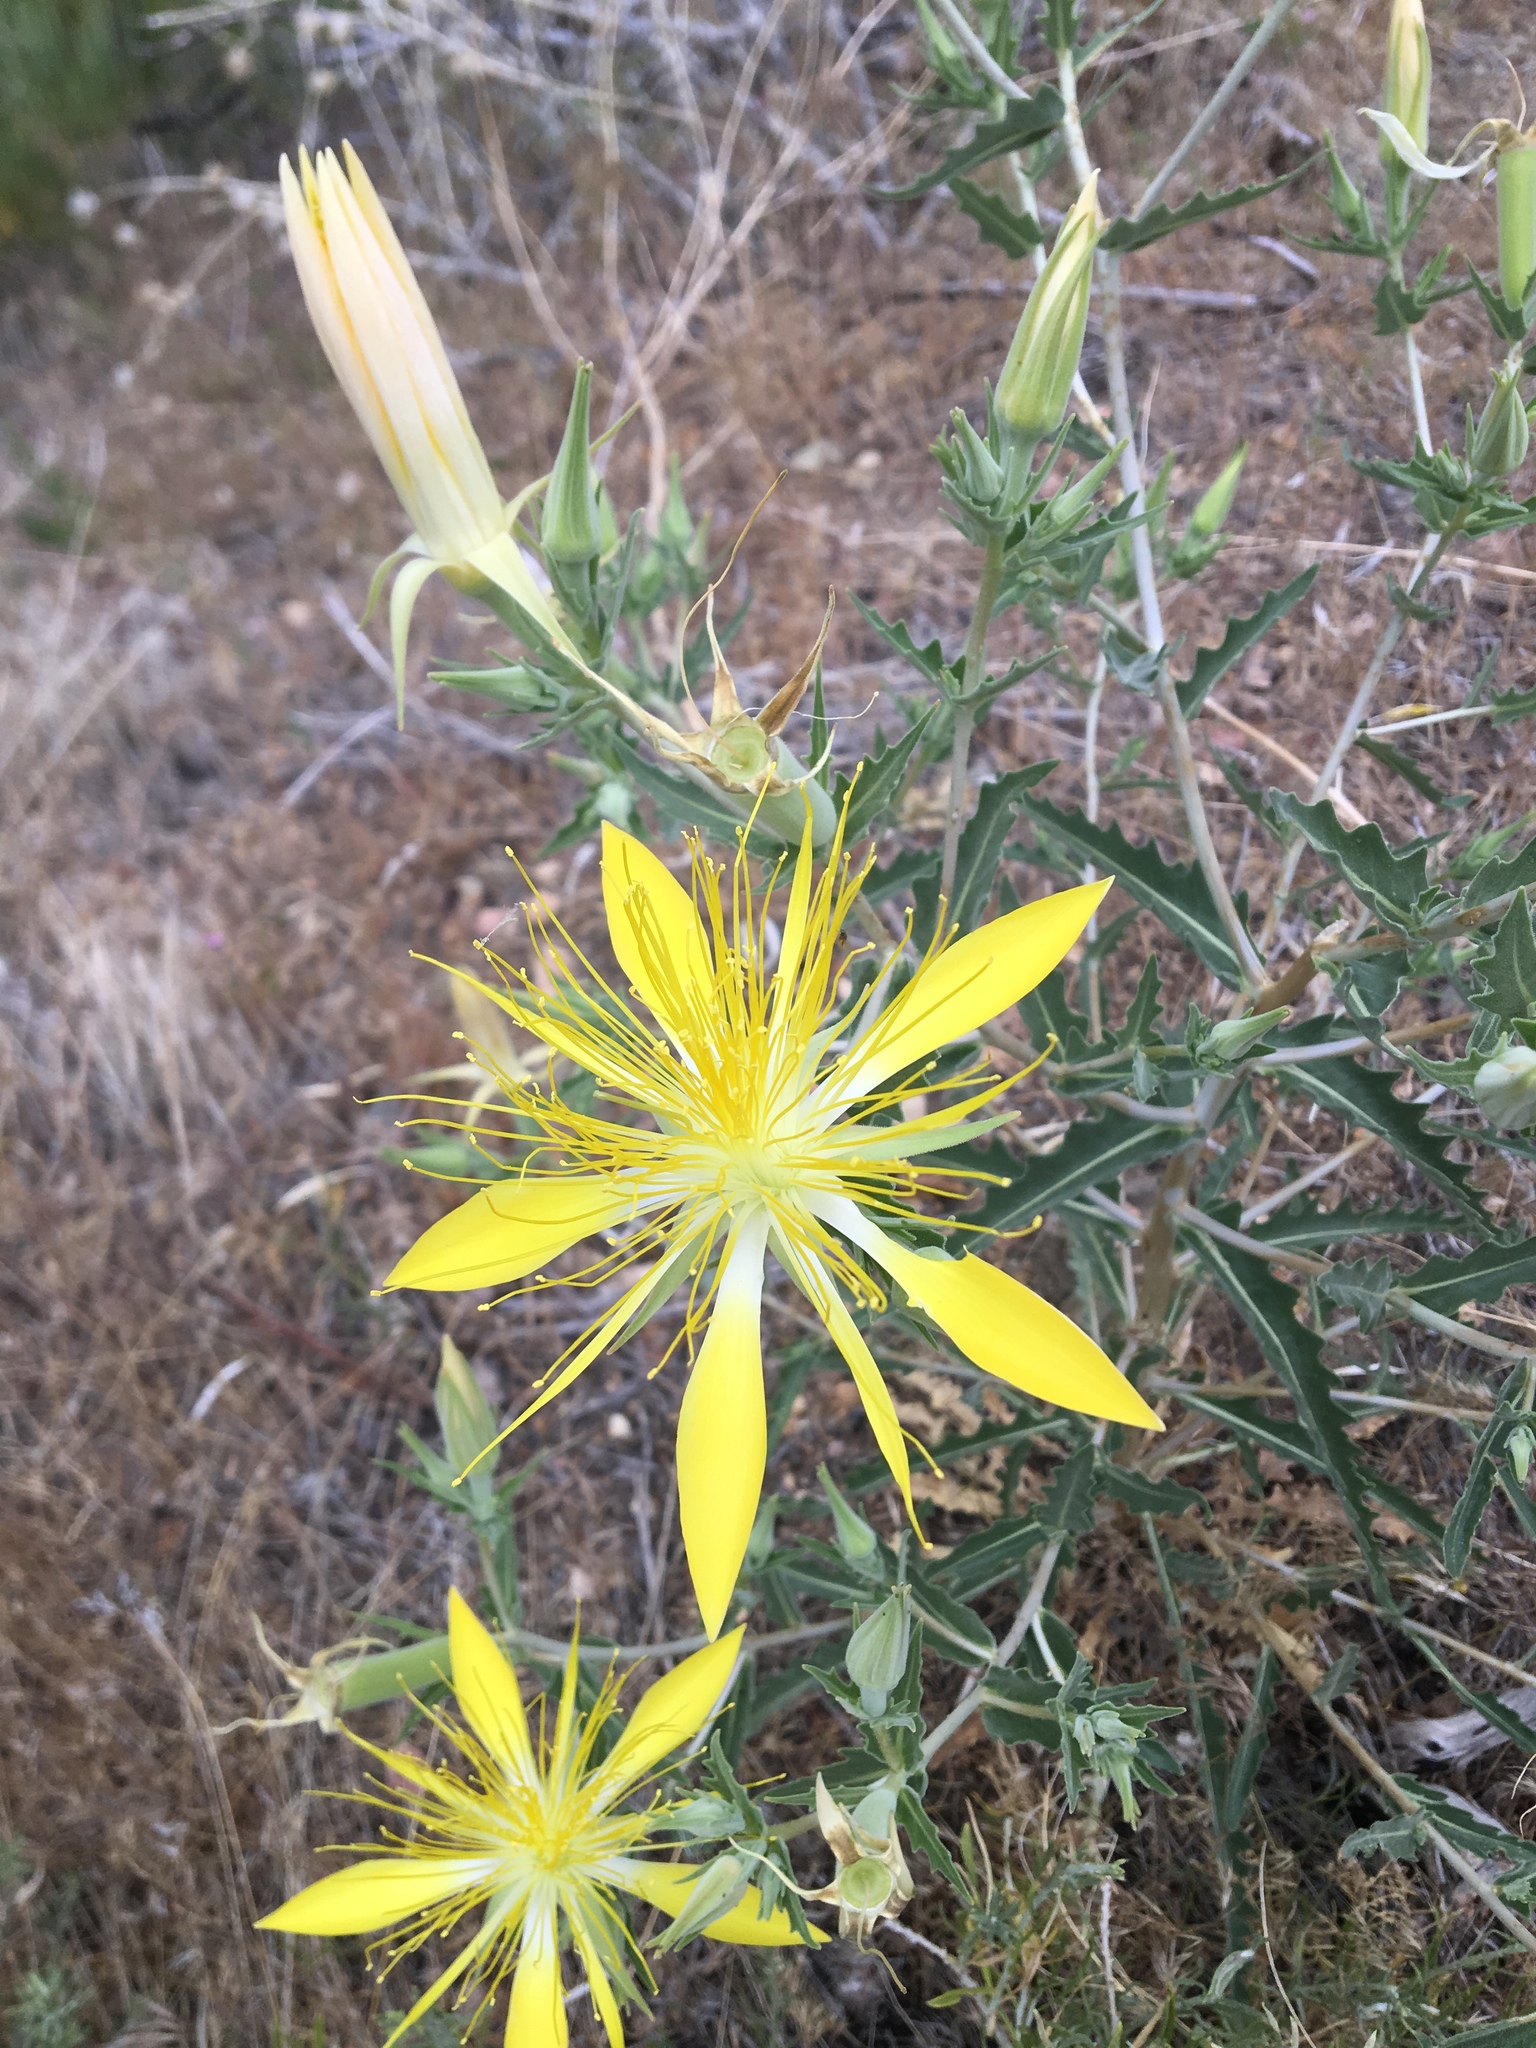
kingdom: Plantae
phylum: Tracheophyta
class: Magnoliopsida
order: Cornales
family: Loasaceae
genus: Mentzelia
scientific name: Mentzelia laevicaulis
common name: Smooth-stem blazingstar
